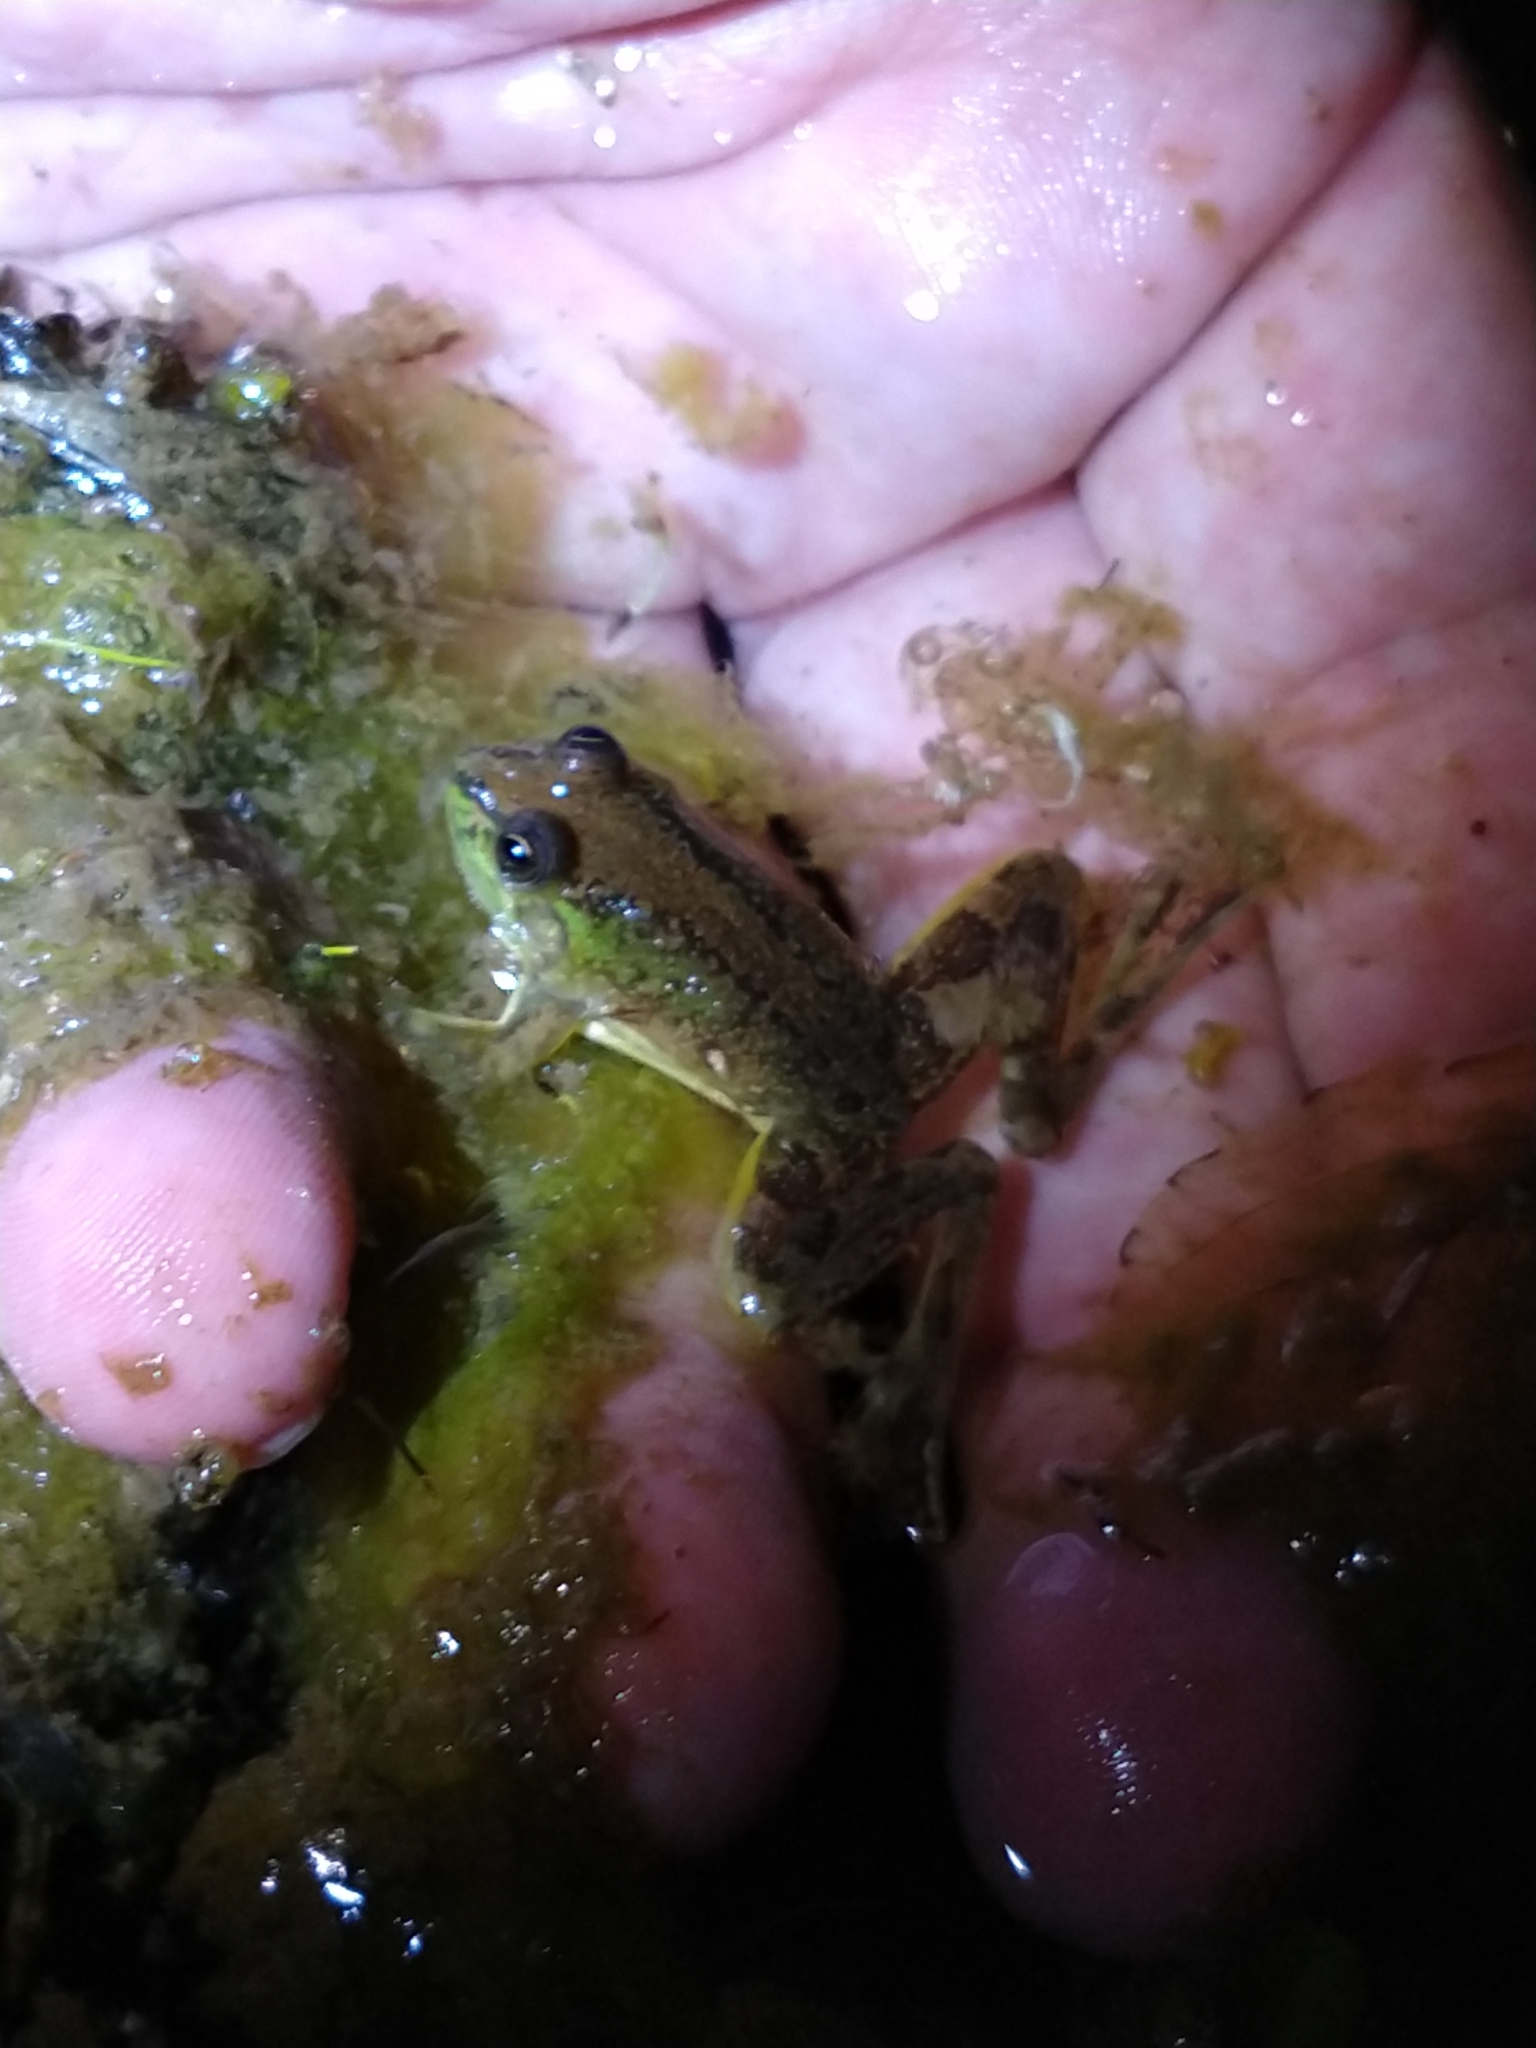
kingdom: Animalia
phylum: Chordata
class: Amphibia
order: Anura
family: Hylidae
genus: Pseudis
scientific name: Pseudis minuta
